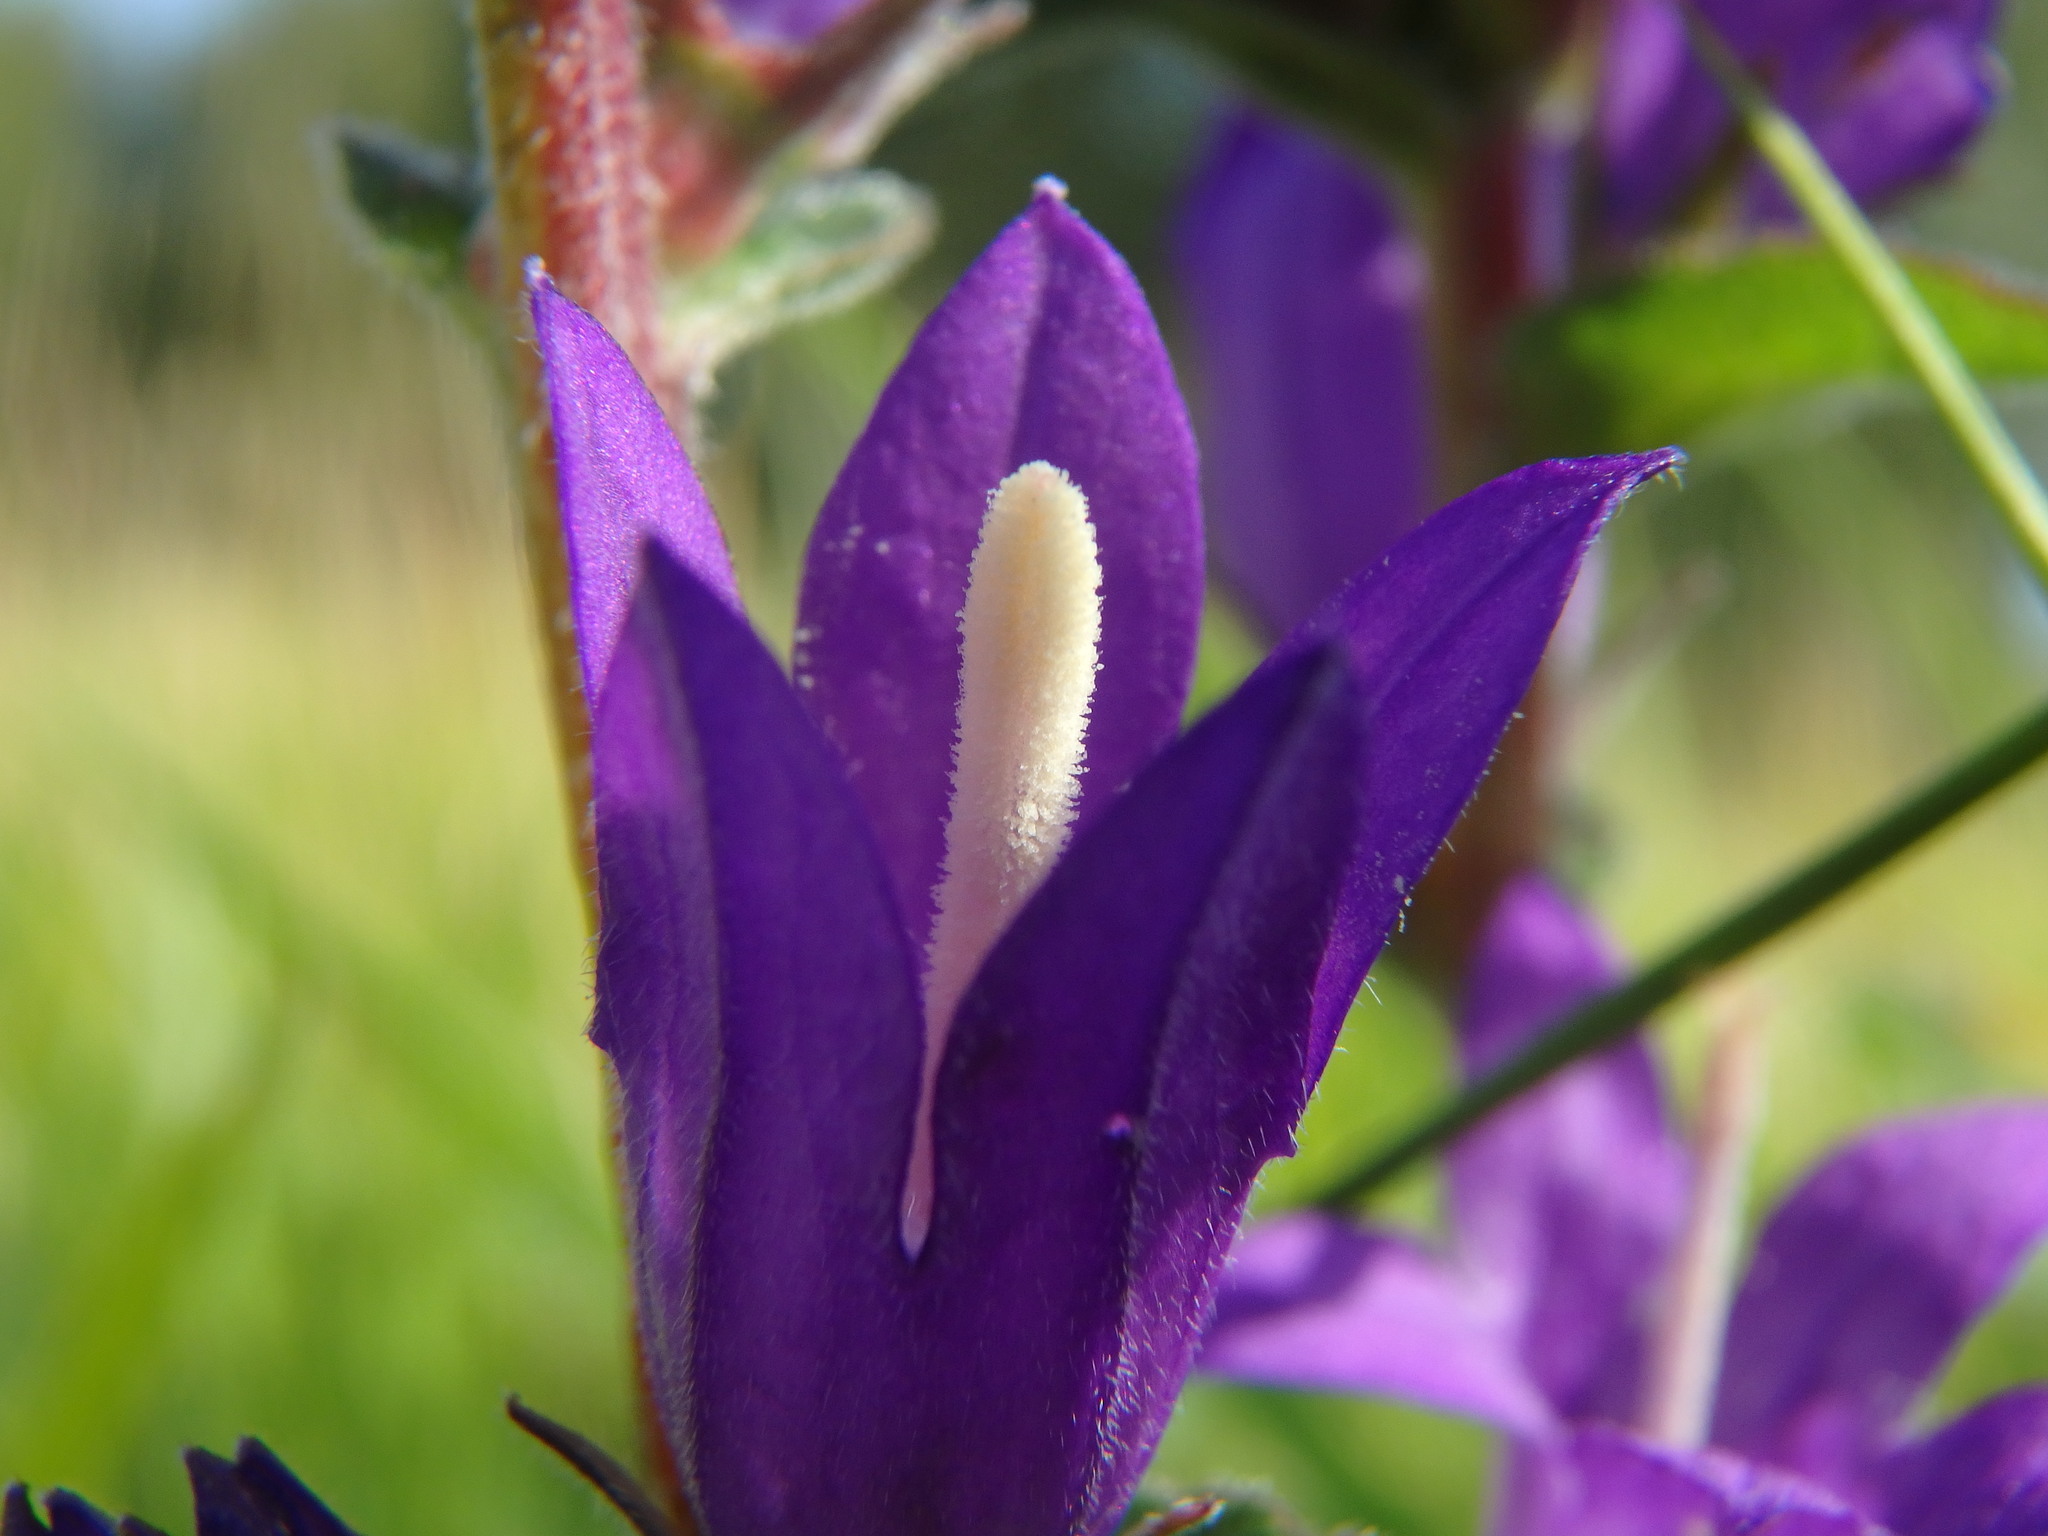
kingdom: Plantae
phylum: Tracheophyta
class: Magnoliopsida
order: Asterales
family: Campanulaceae
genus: Campanula
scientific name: Campanula glomerata
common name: Clustered bellflower
